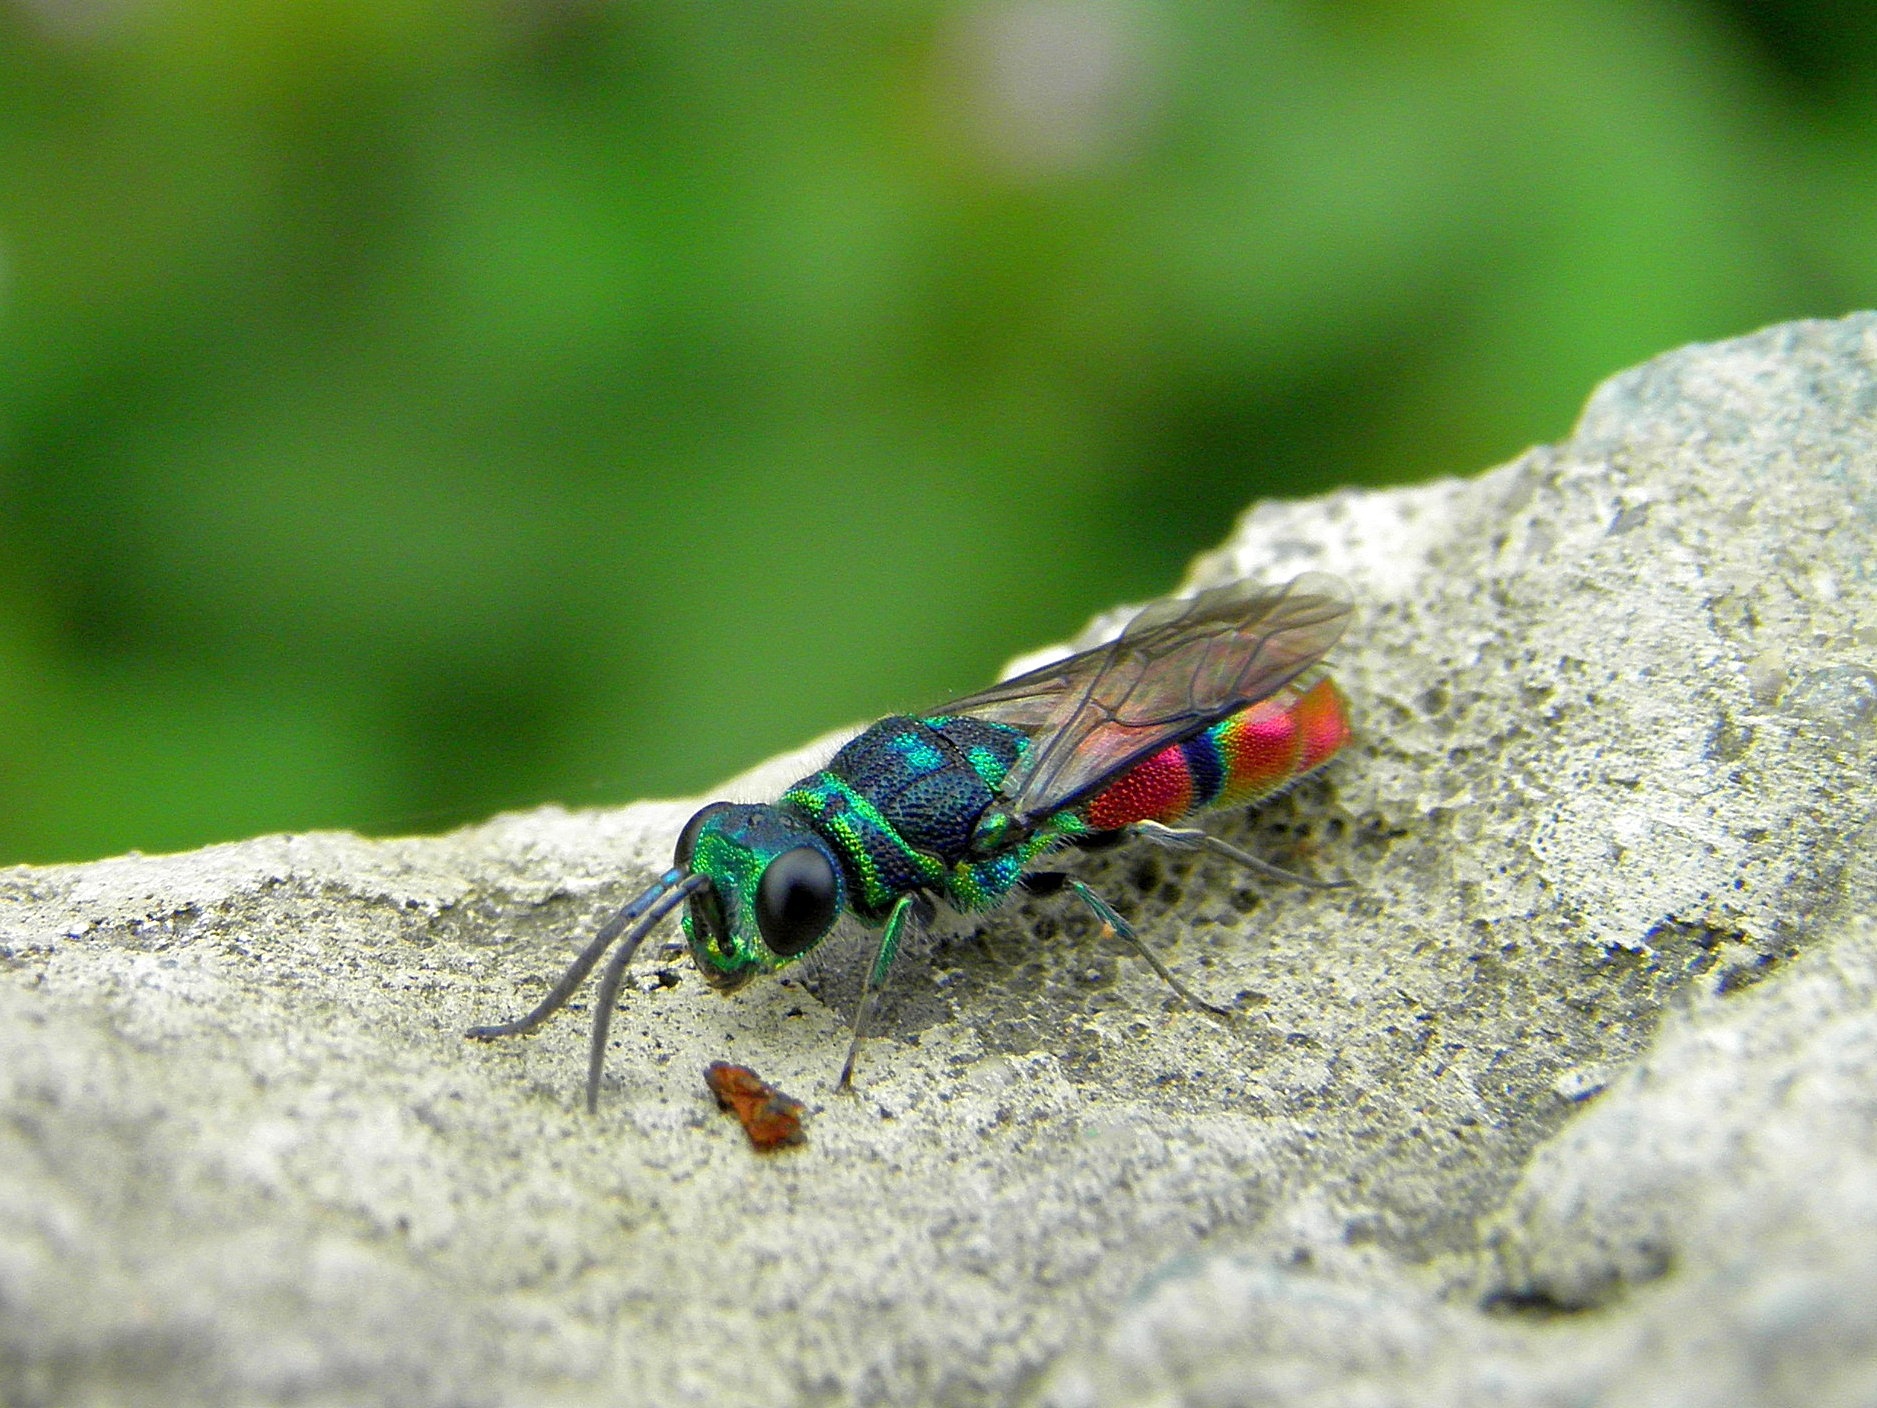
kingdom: Animalia
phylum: Arthropoda
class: Insecta
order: Hymenoptera
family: Chrysididae
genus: Chrysis
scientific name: Chrysis
